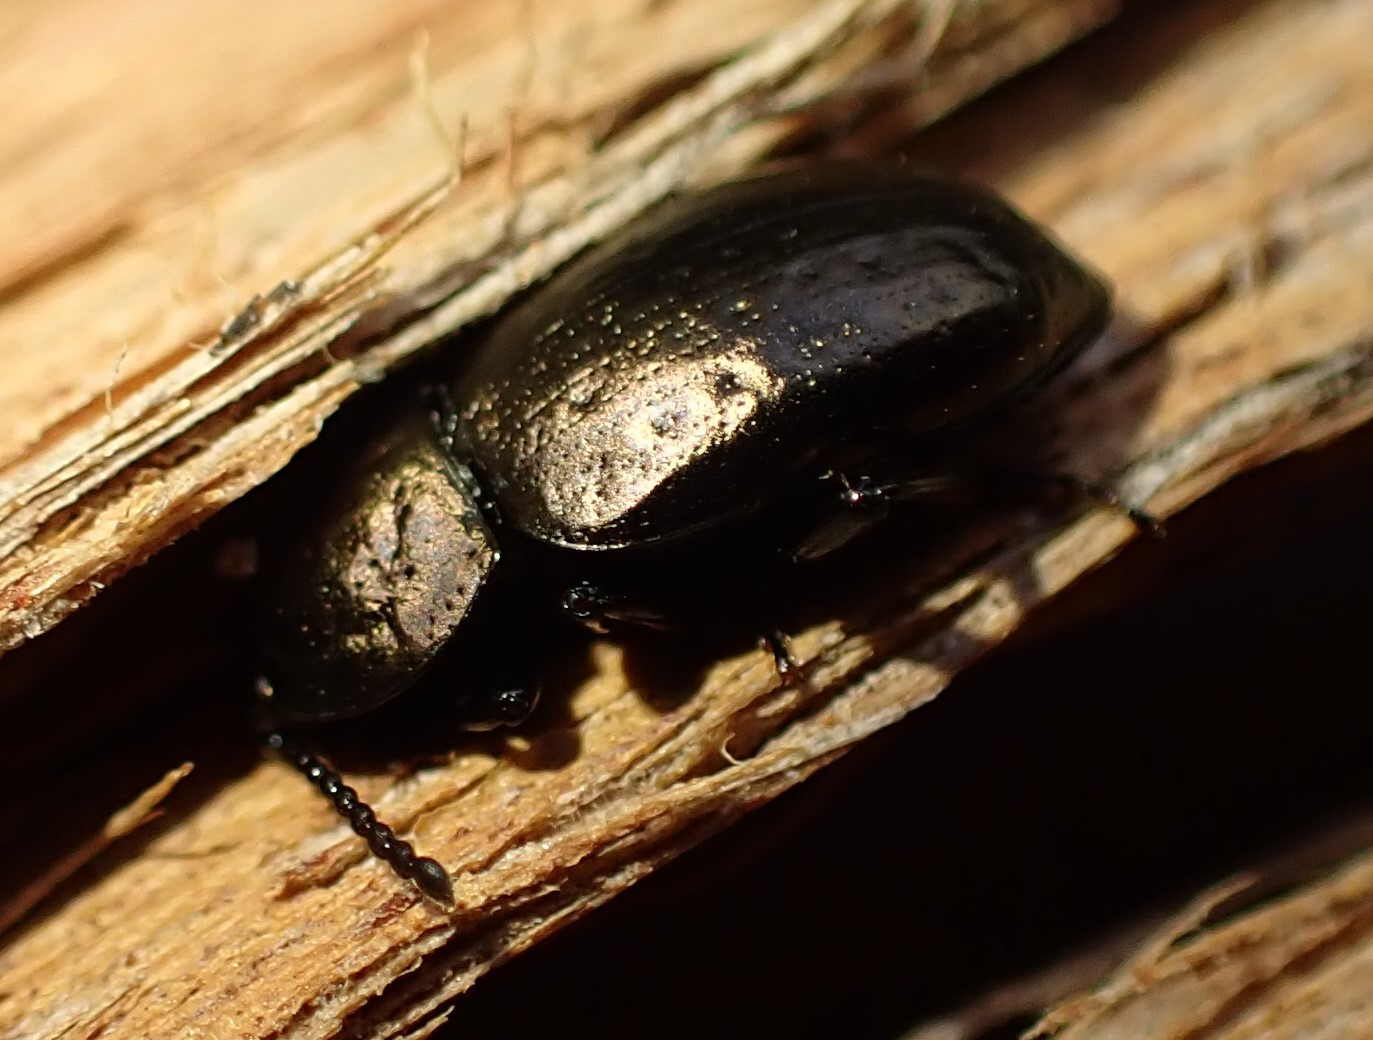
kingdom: Animalia
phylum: Arthropoda
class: Insecta
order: Coleoptera
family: Tenebrionidae
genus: Adelium
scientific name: Adelium abbreviatum
